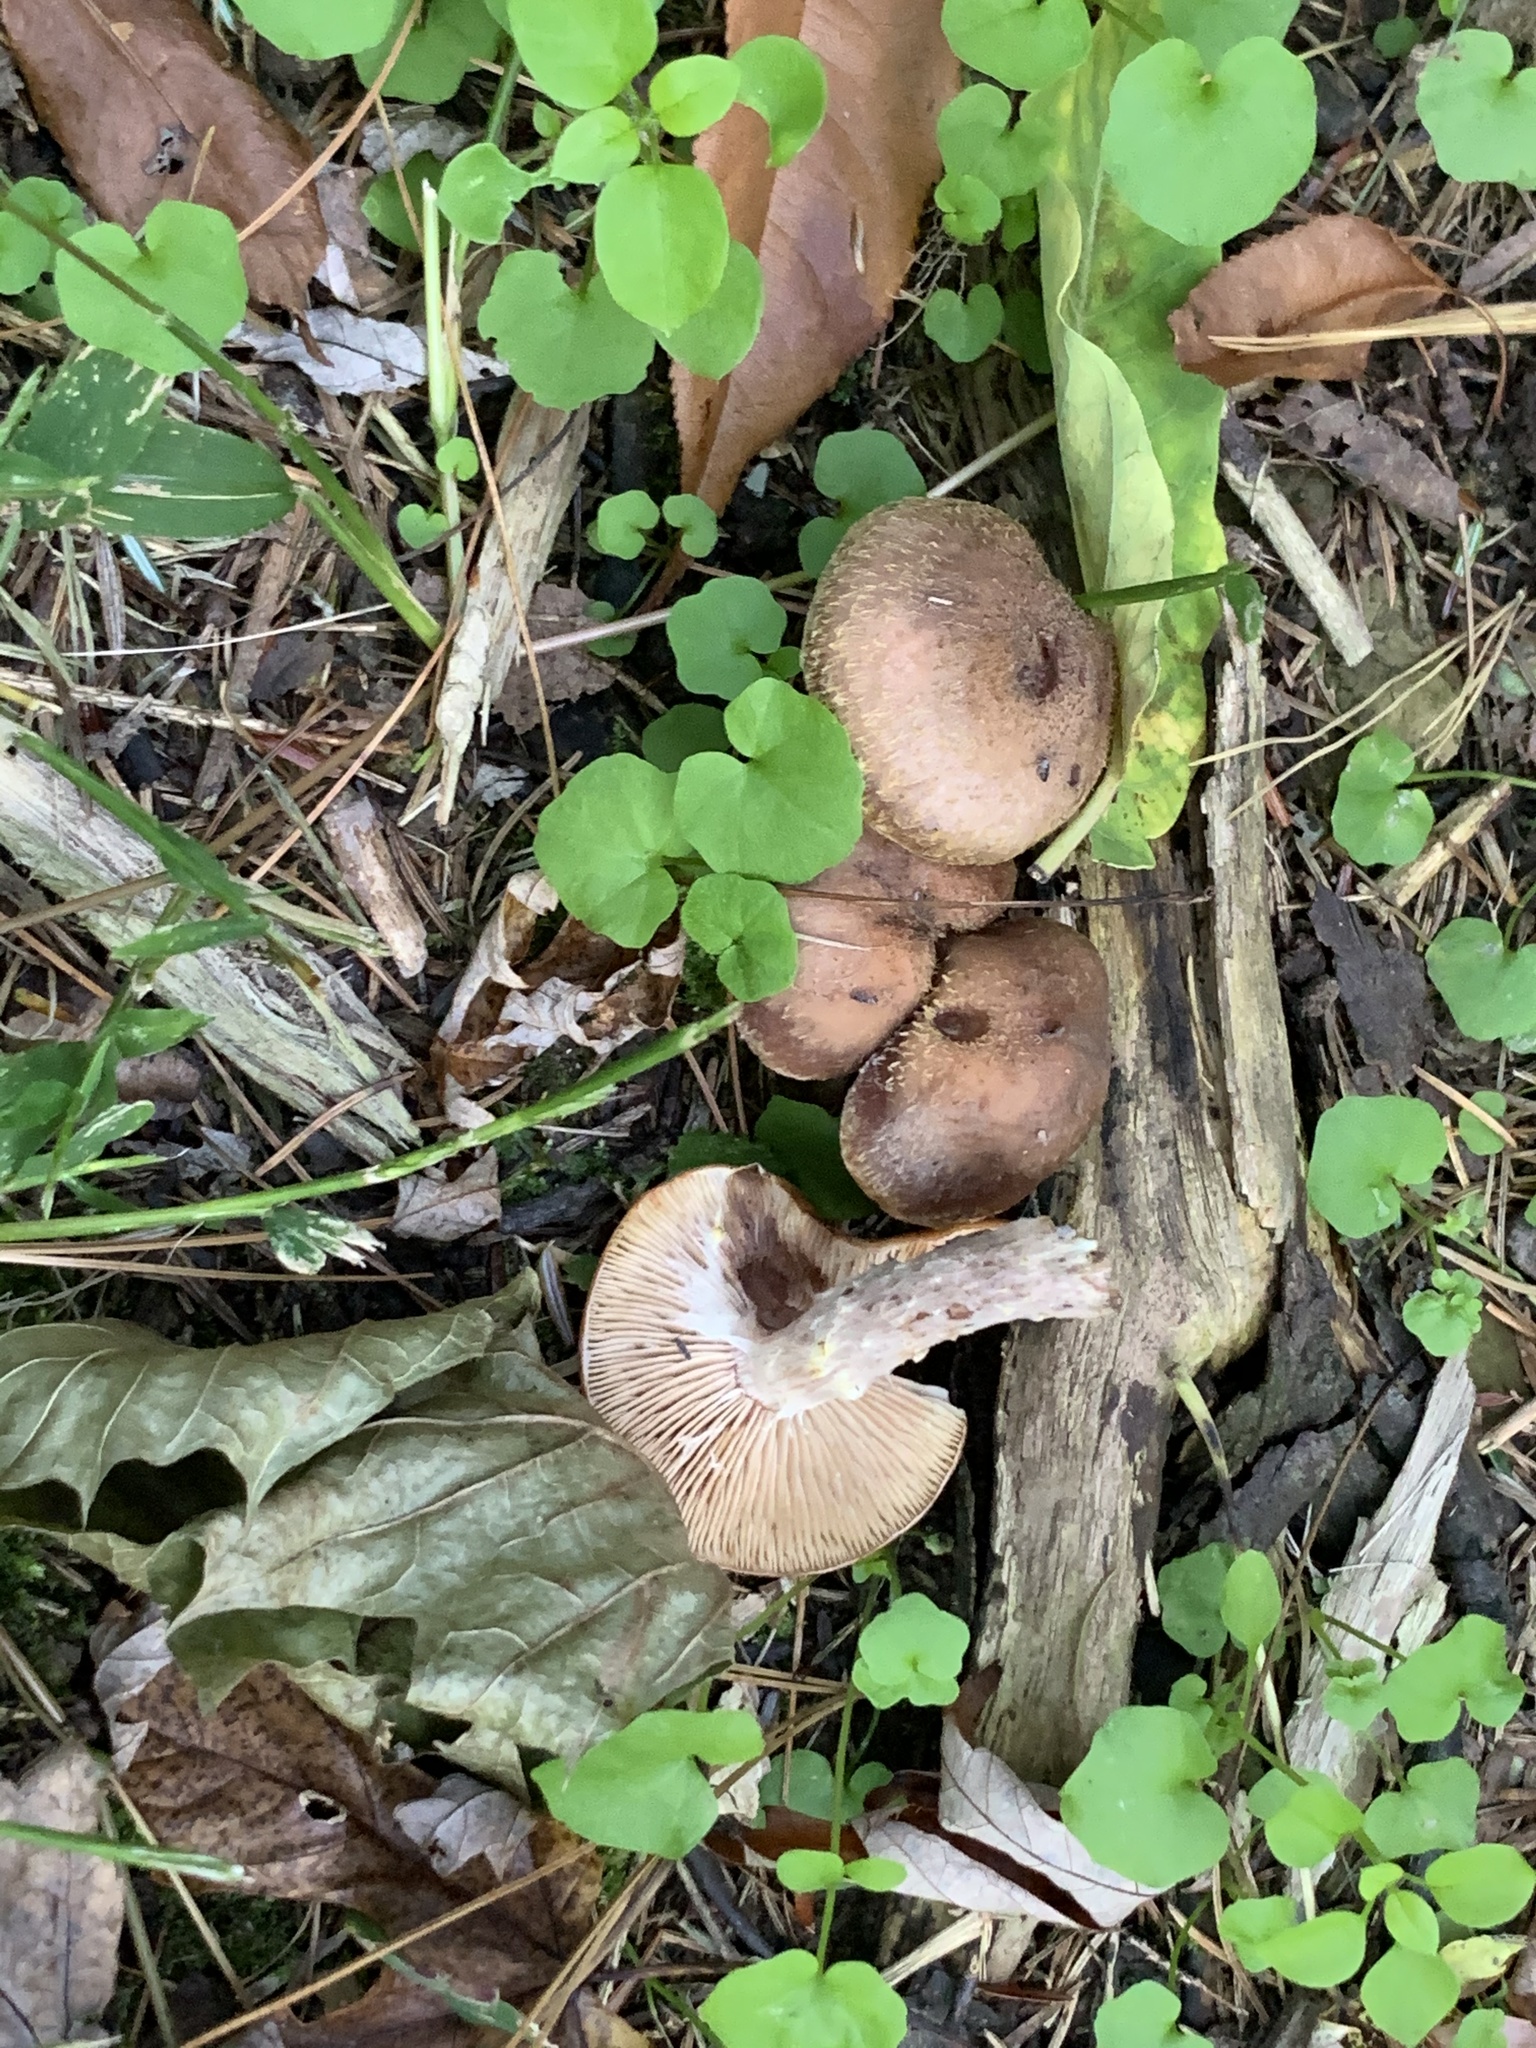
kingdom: Fungi
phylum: Basidiomycota
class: Agaricomycetes
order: Agaricales
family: Physalacriaceae
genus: Armillaria
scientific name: Armillaria gallica
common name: Bulbous honey fungus
